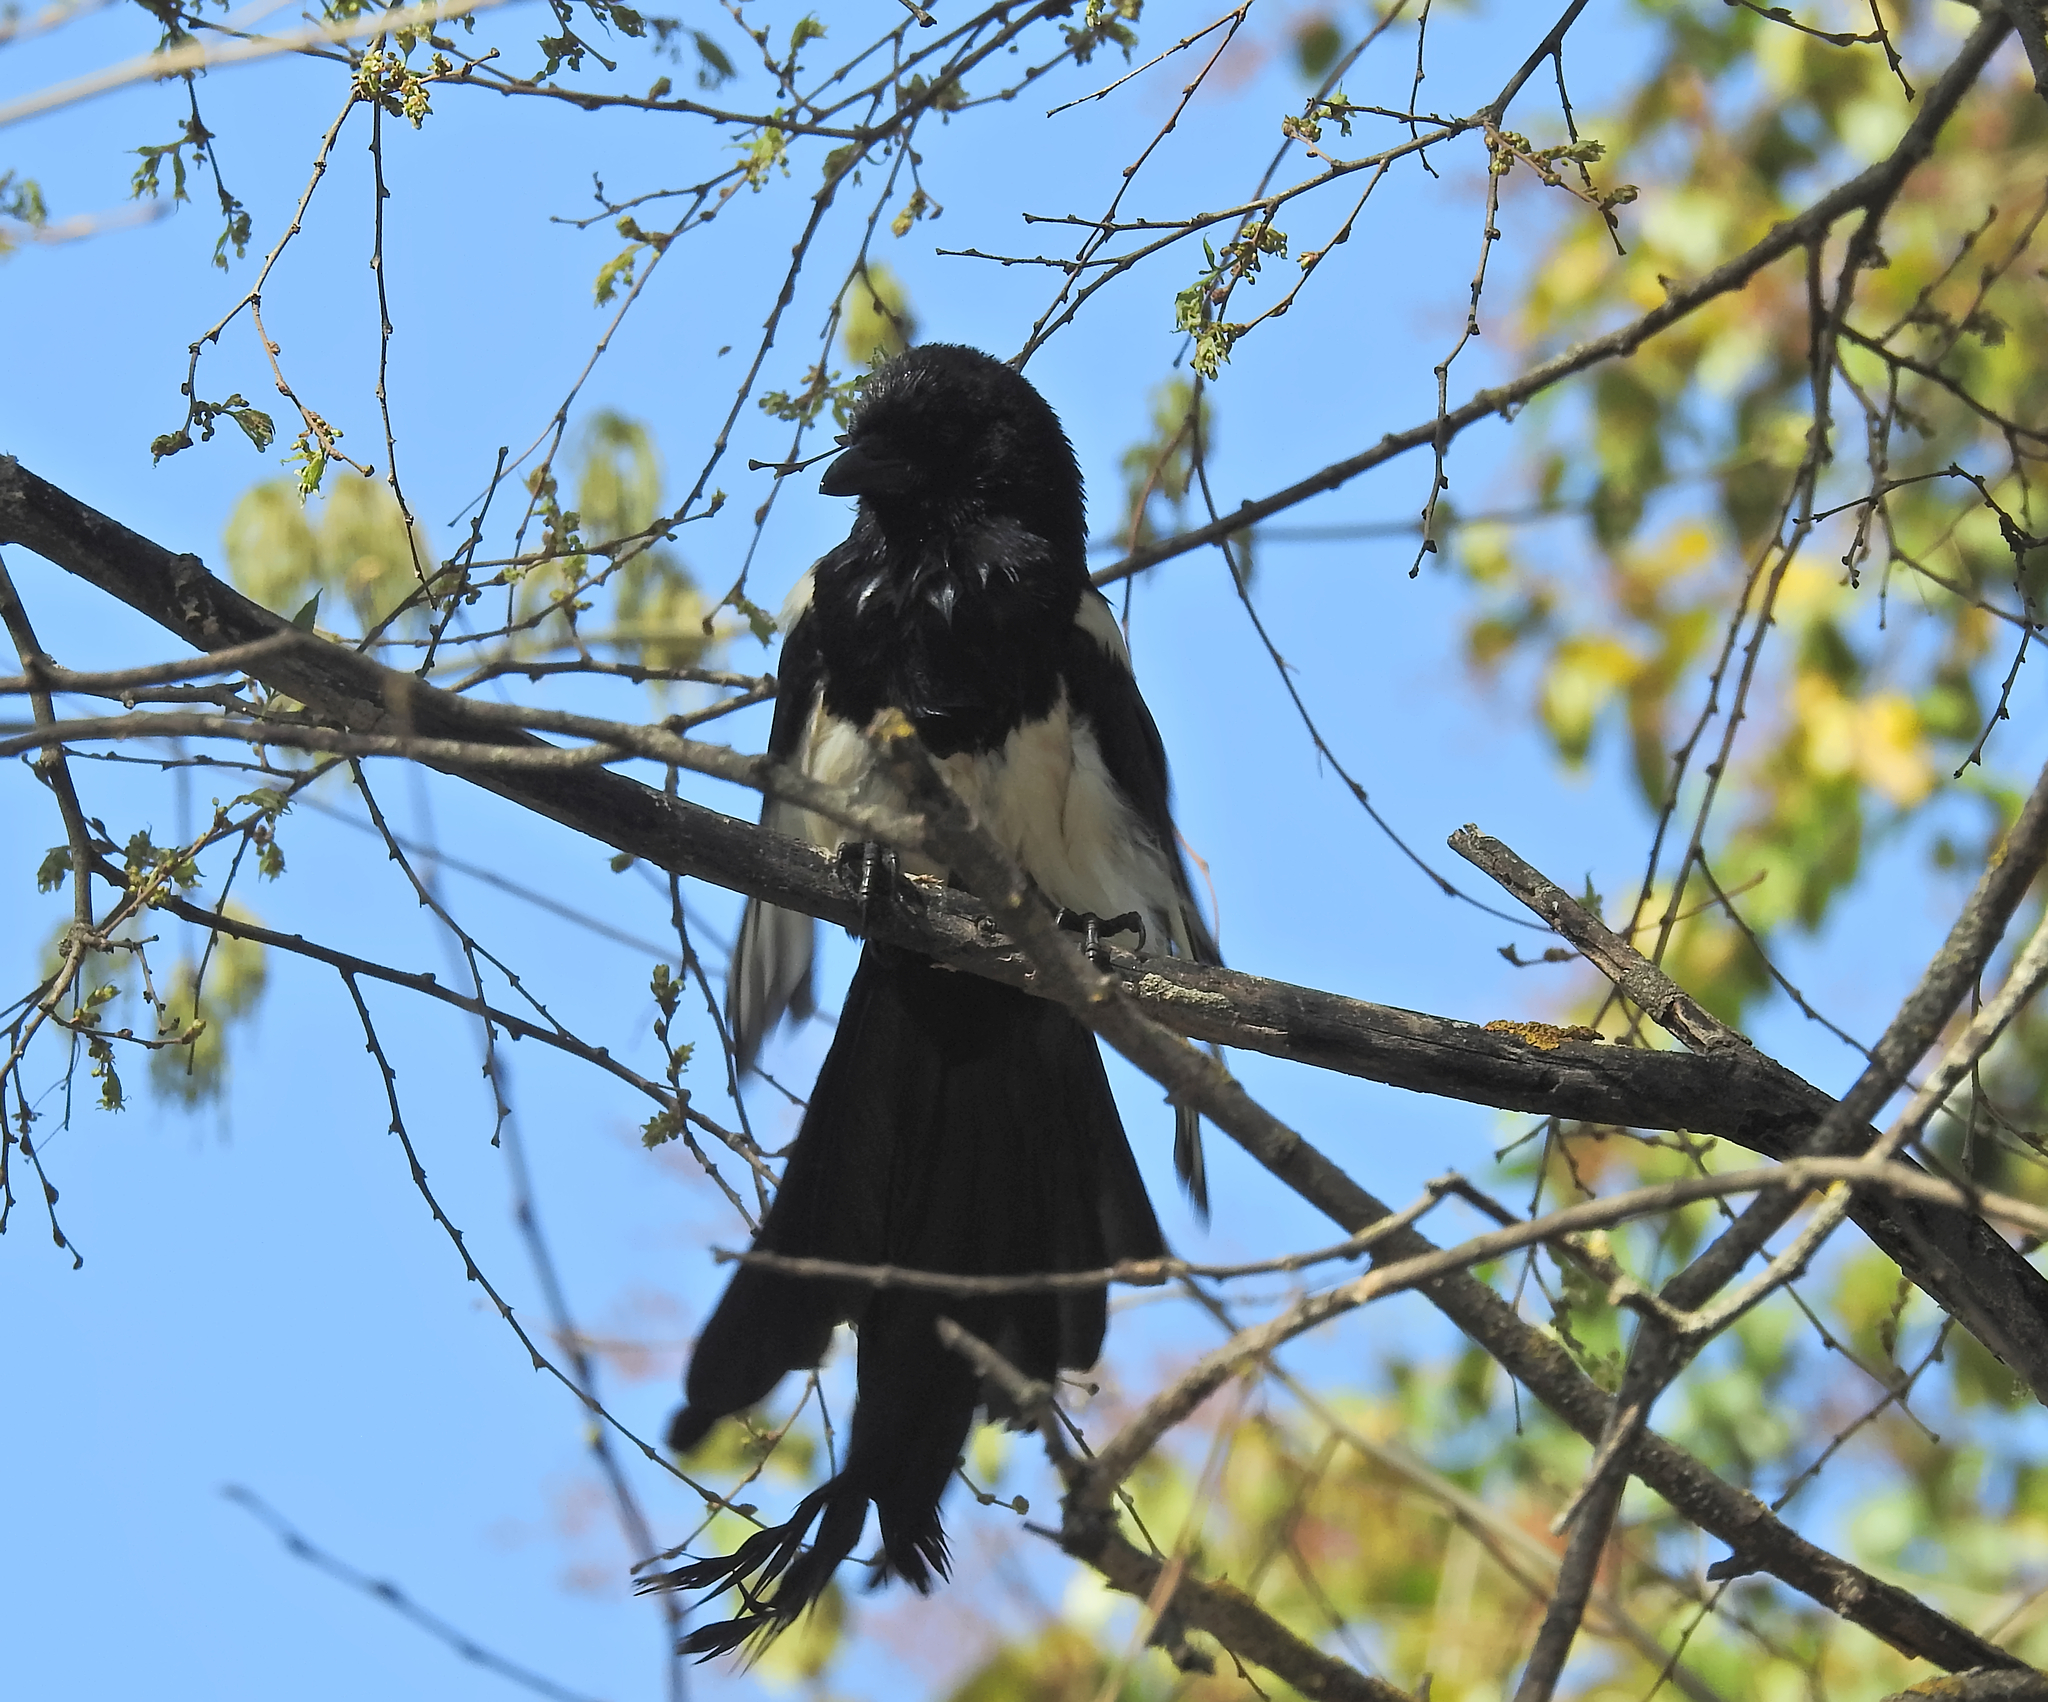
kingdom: Animalia
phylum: Chordata
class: Aves
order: Passeriformes
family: Corvidae
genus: Pica
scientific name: Pica pica
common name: Eurasian magpie
